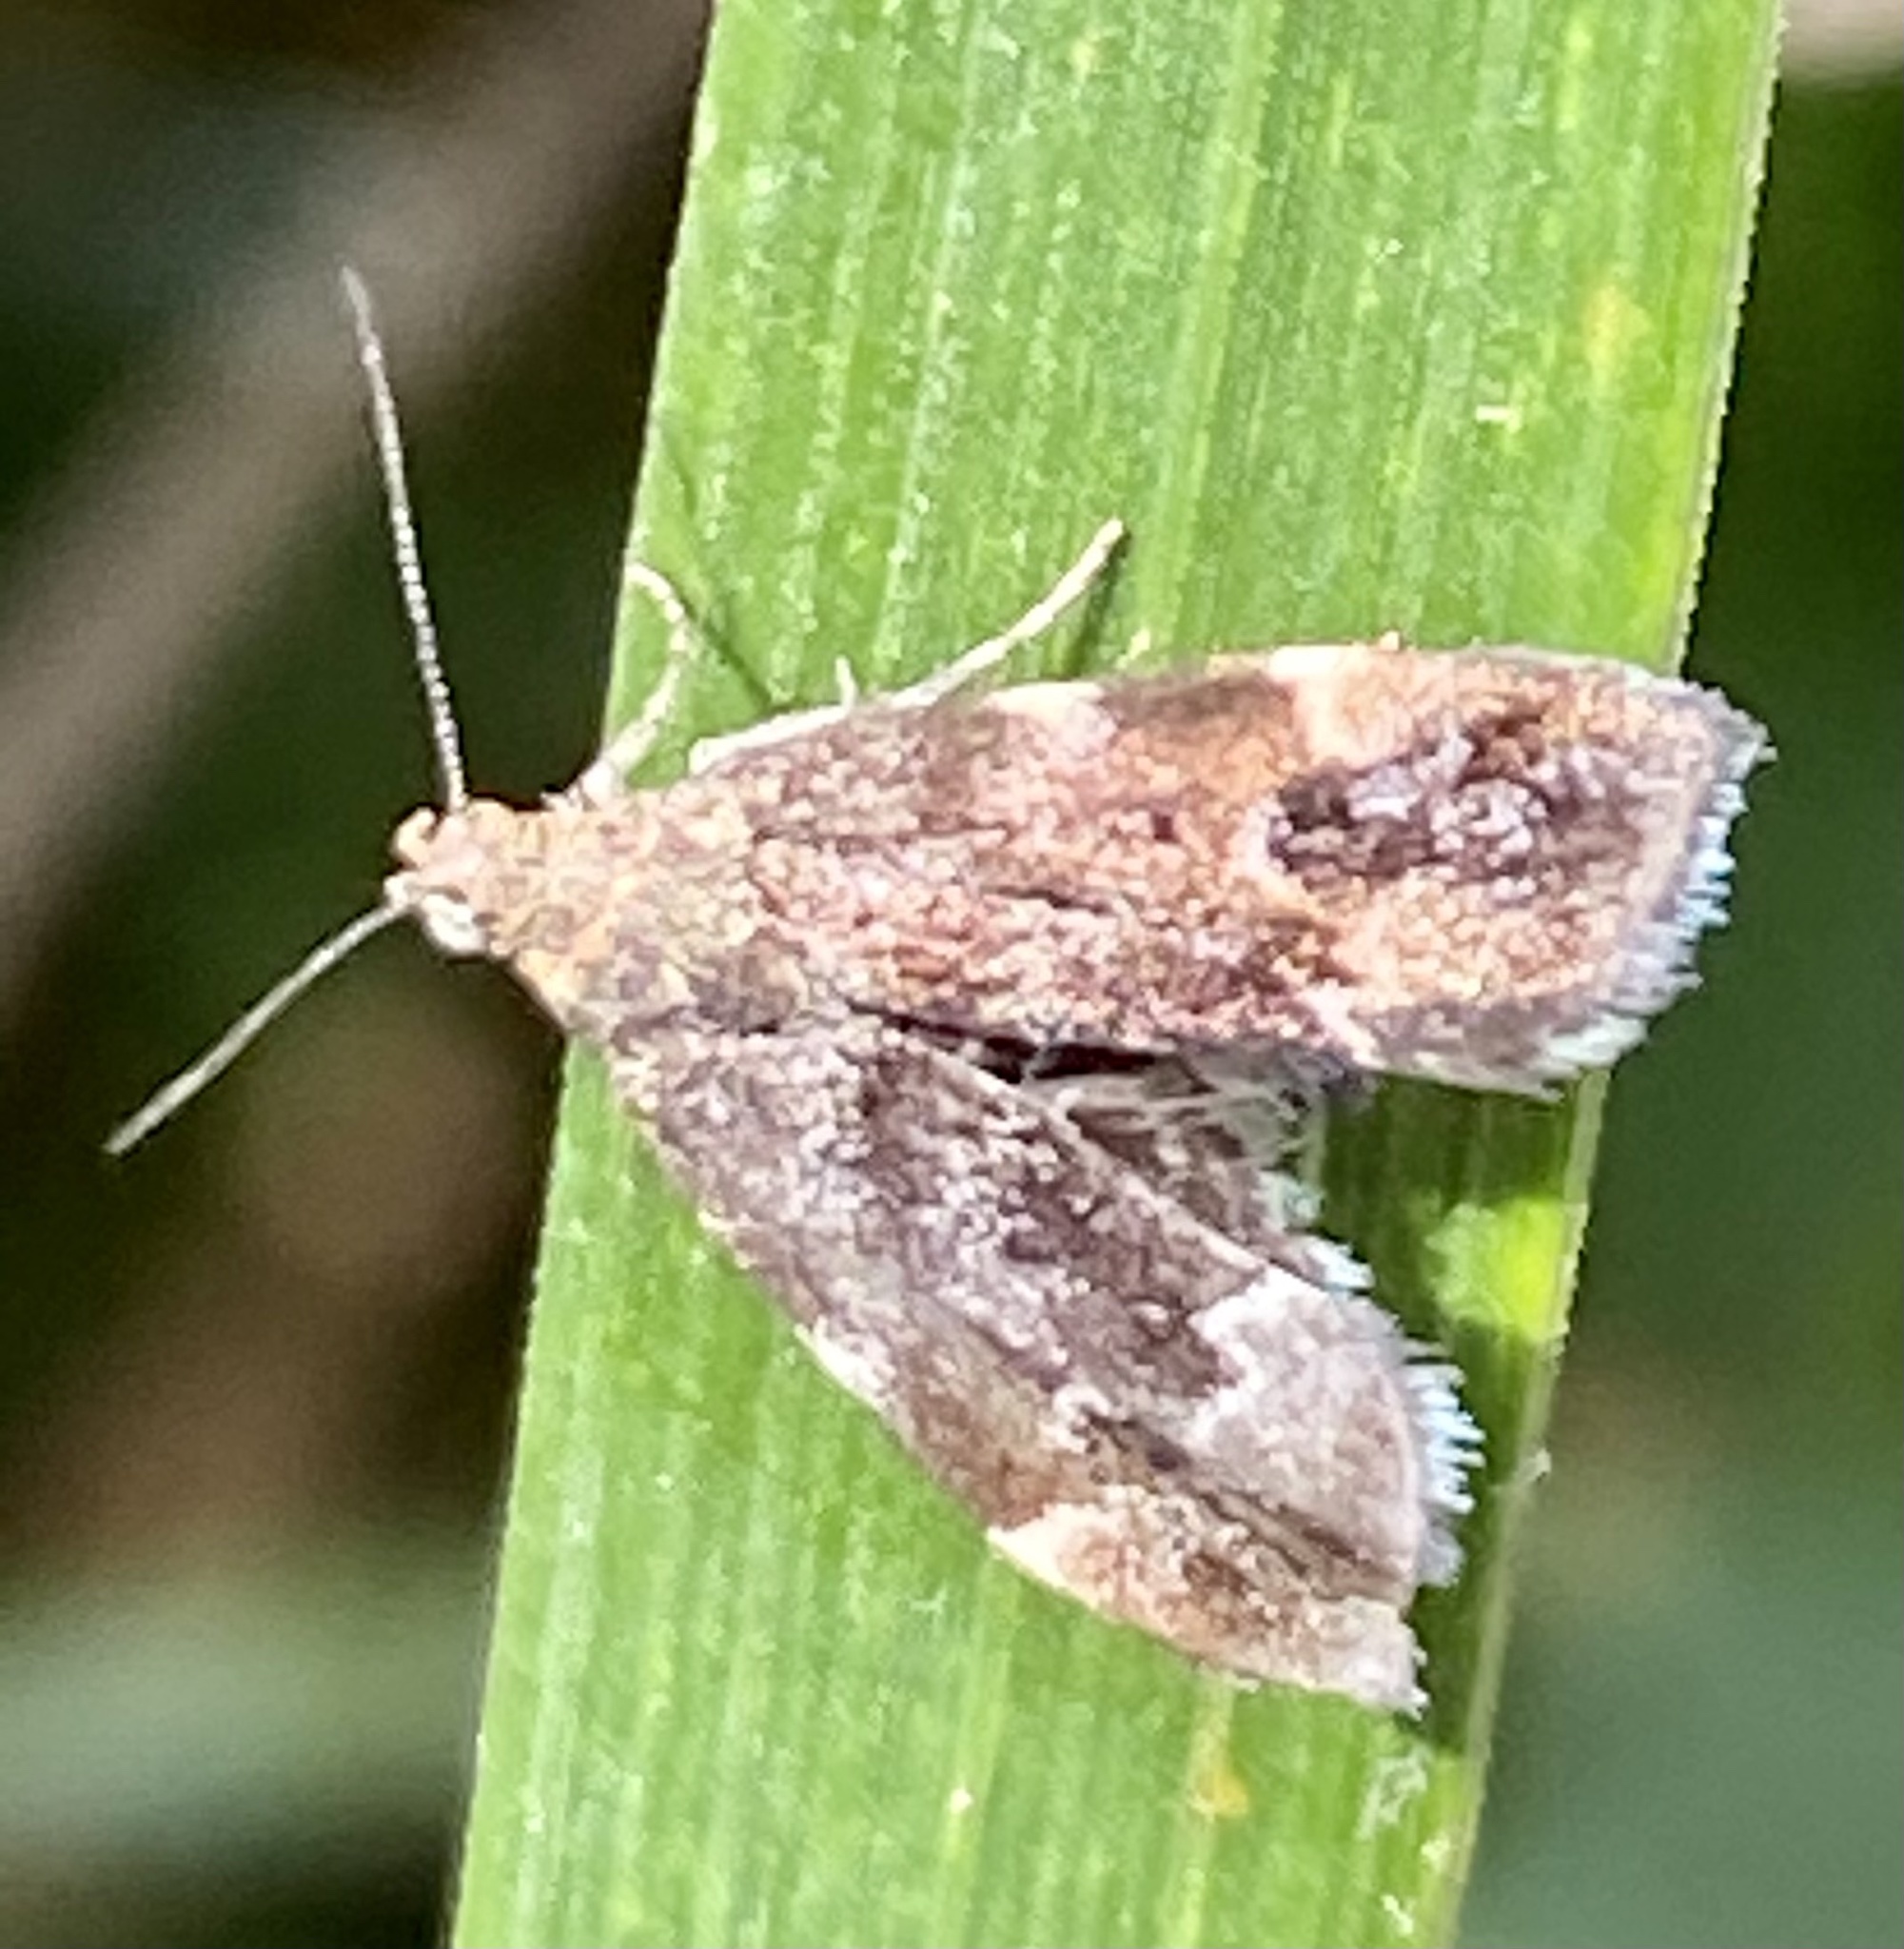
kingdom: Animalia
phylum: Arthropoda
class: Insecta
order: Lepidoptera
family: Choreutidae
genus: Anthophila
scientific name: Anthophila fabriciana
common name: Nettle-tap
